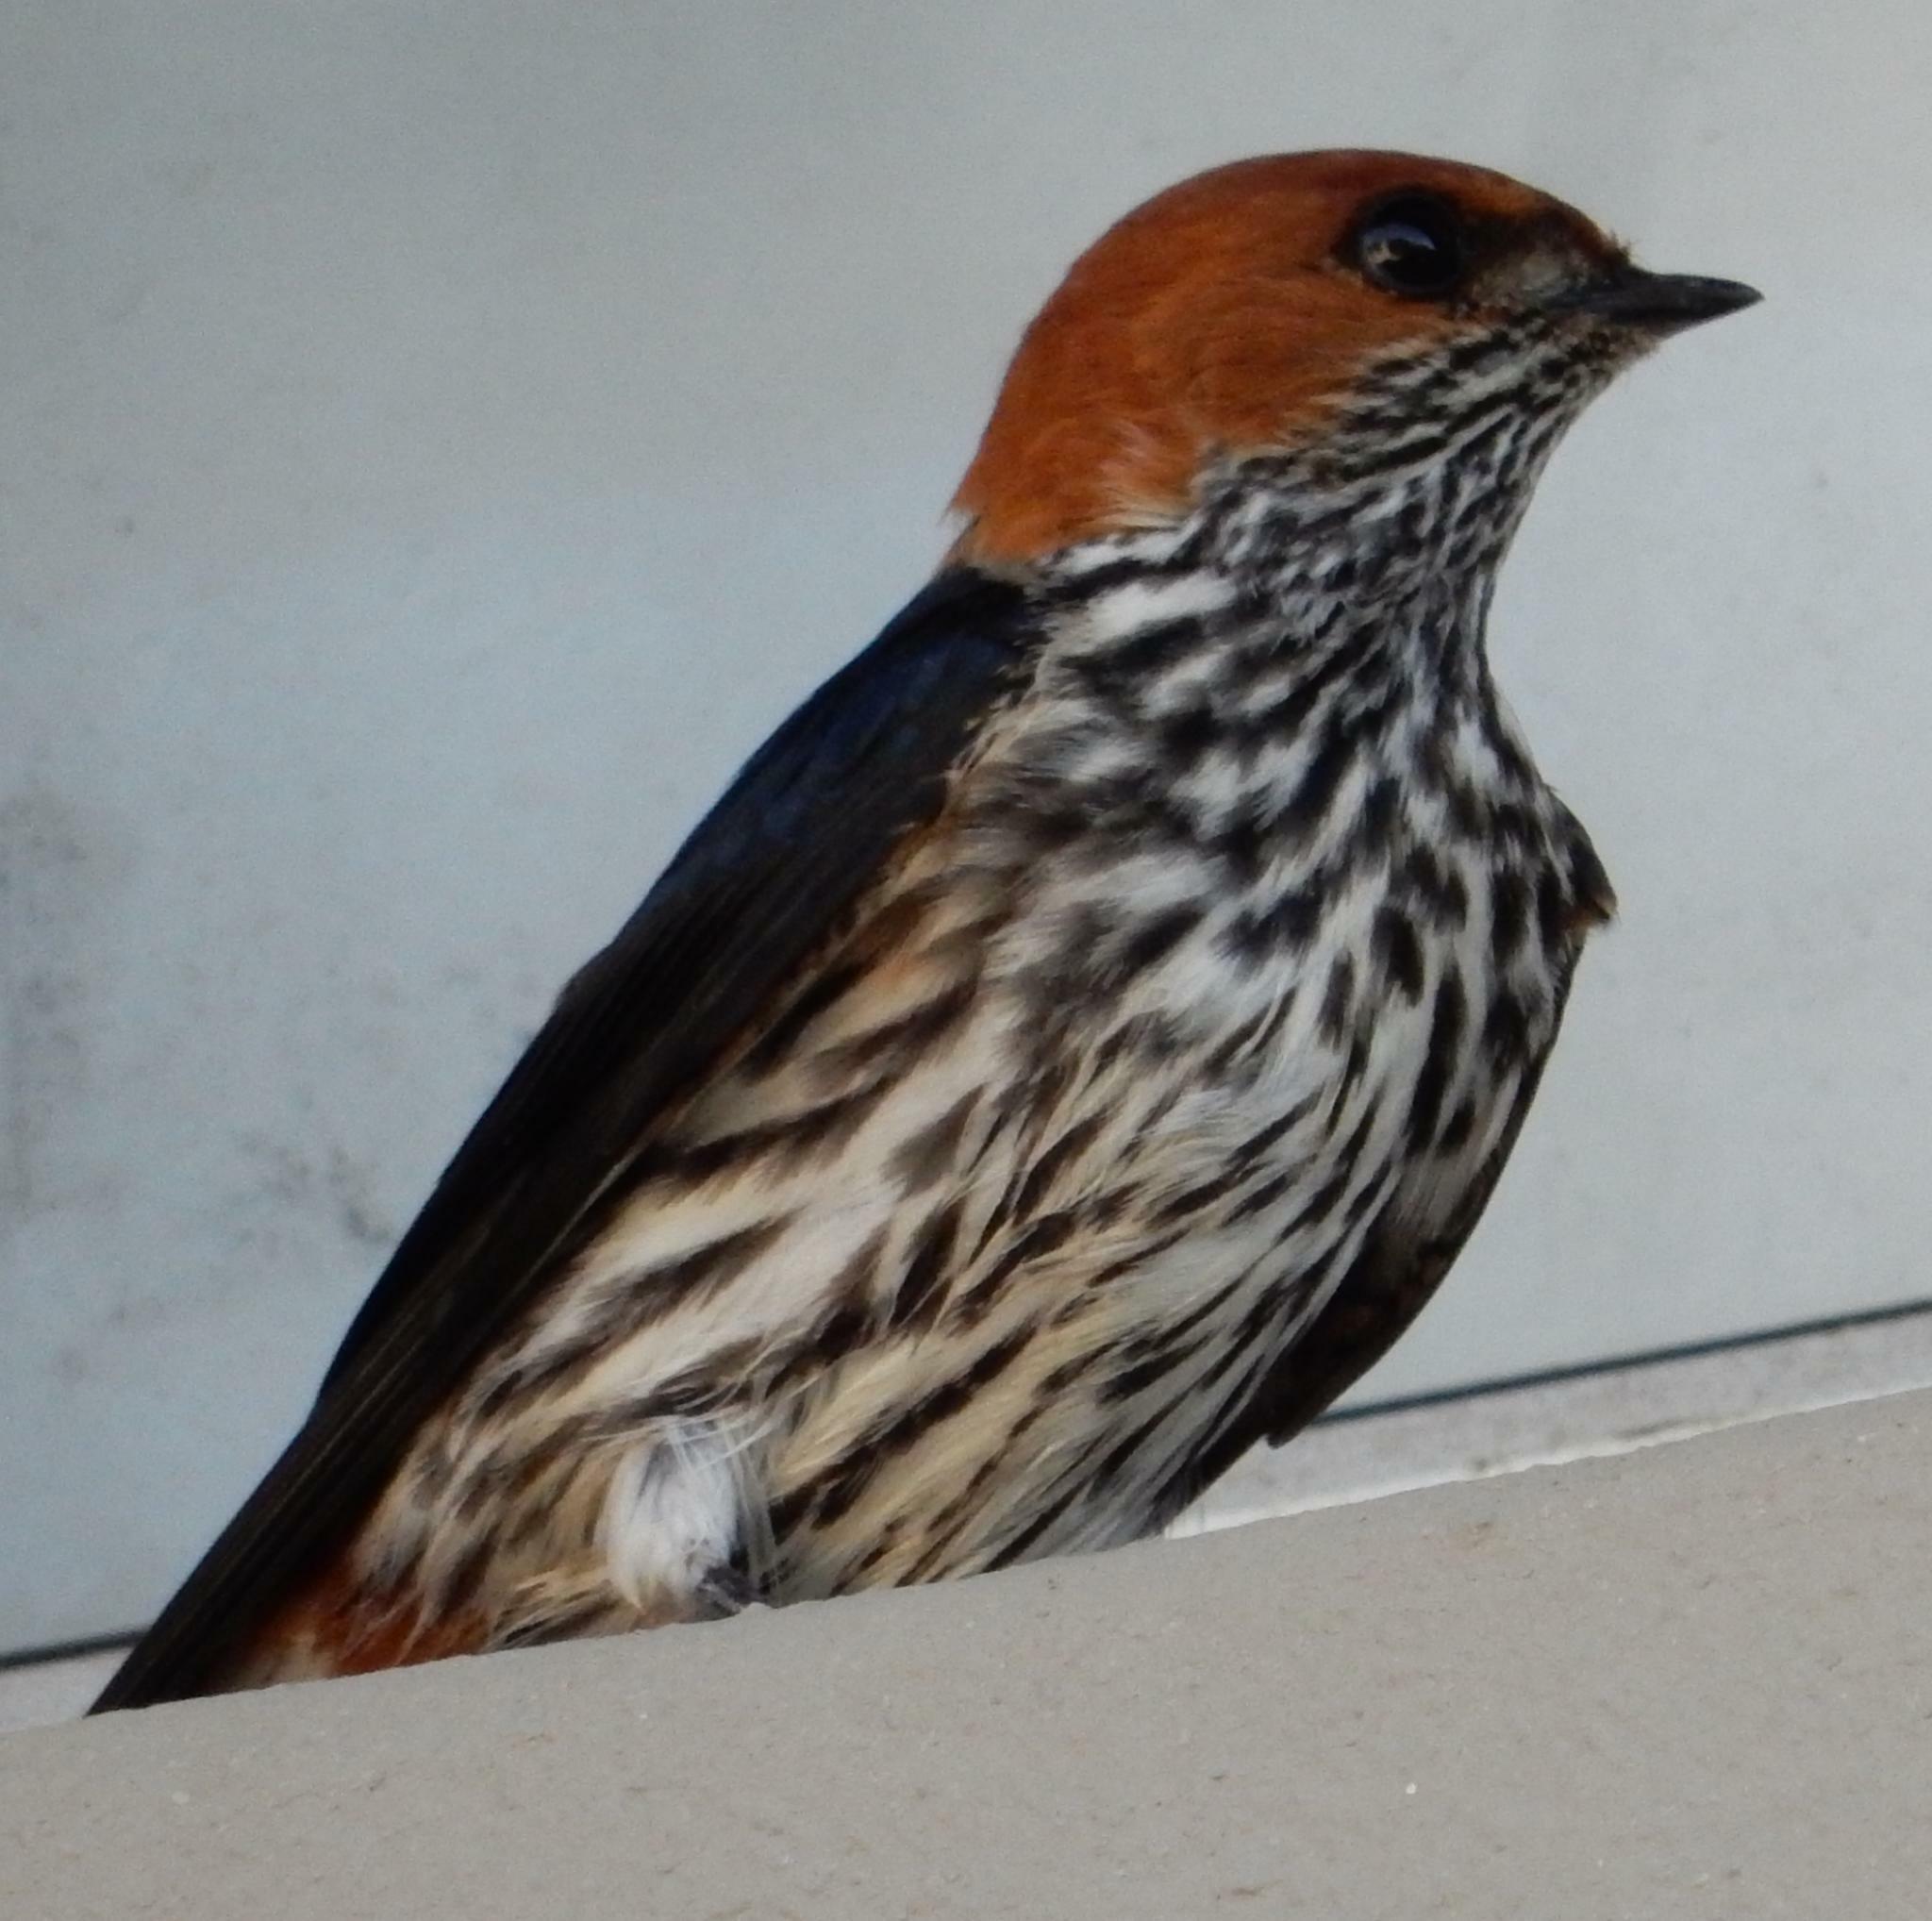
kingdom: Animalia
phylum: Chordata
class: Aves
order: Passeriformes
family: Hirundinidae
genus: Cecropis
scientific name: Cecropis abyssinica
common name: Lesser striped-swallow
